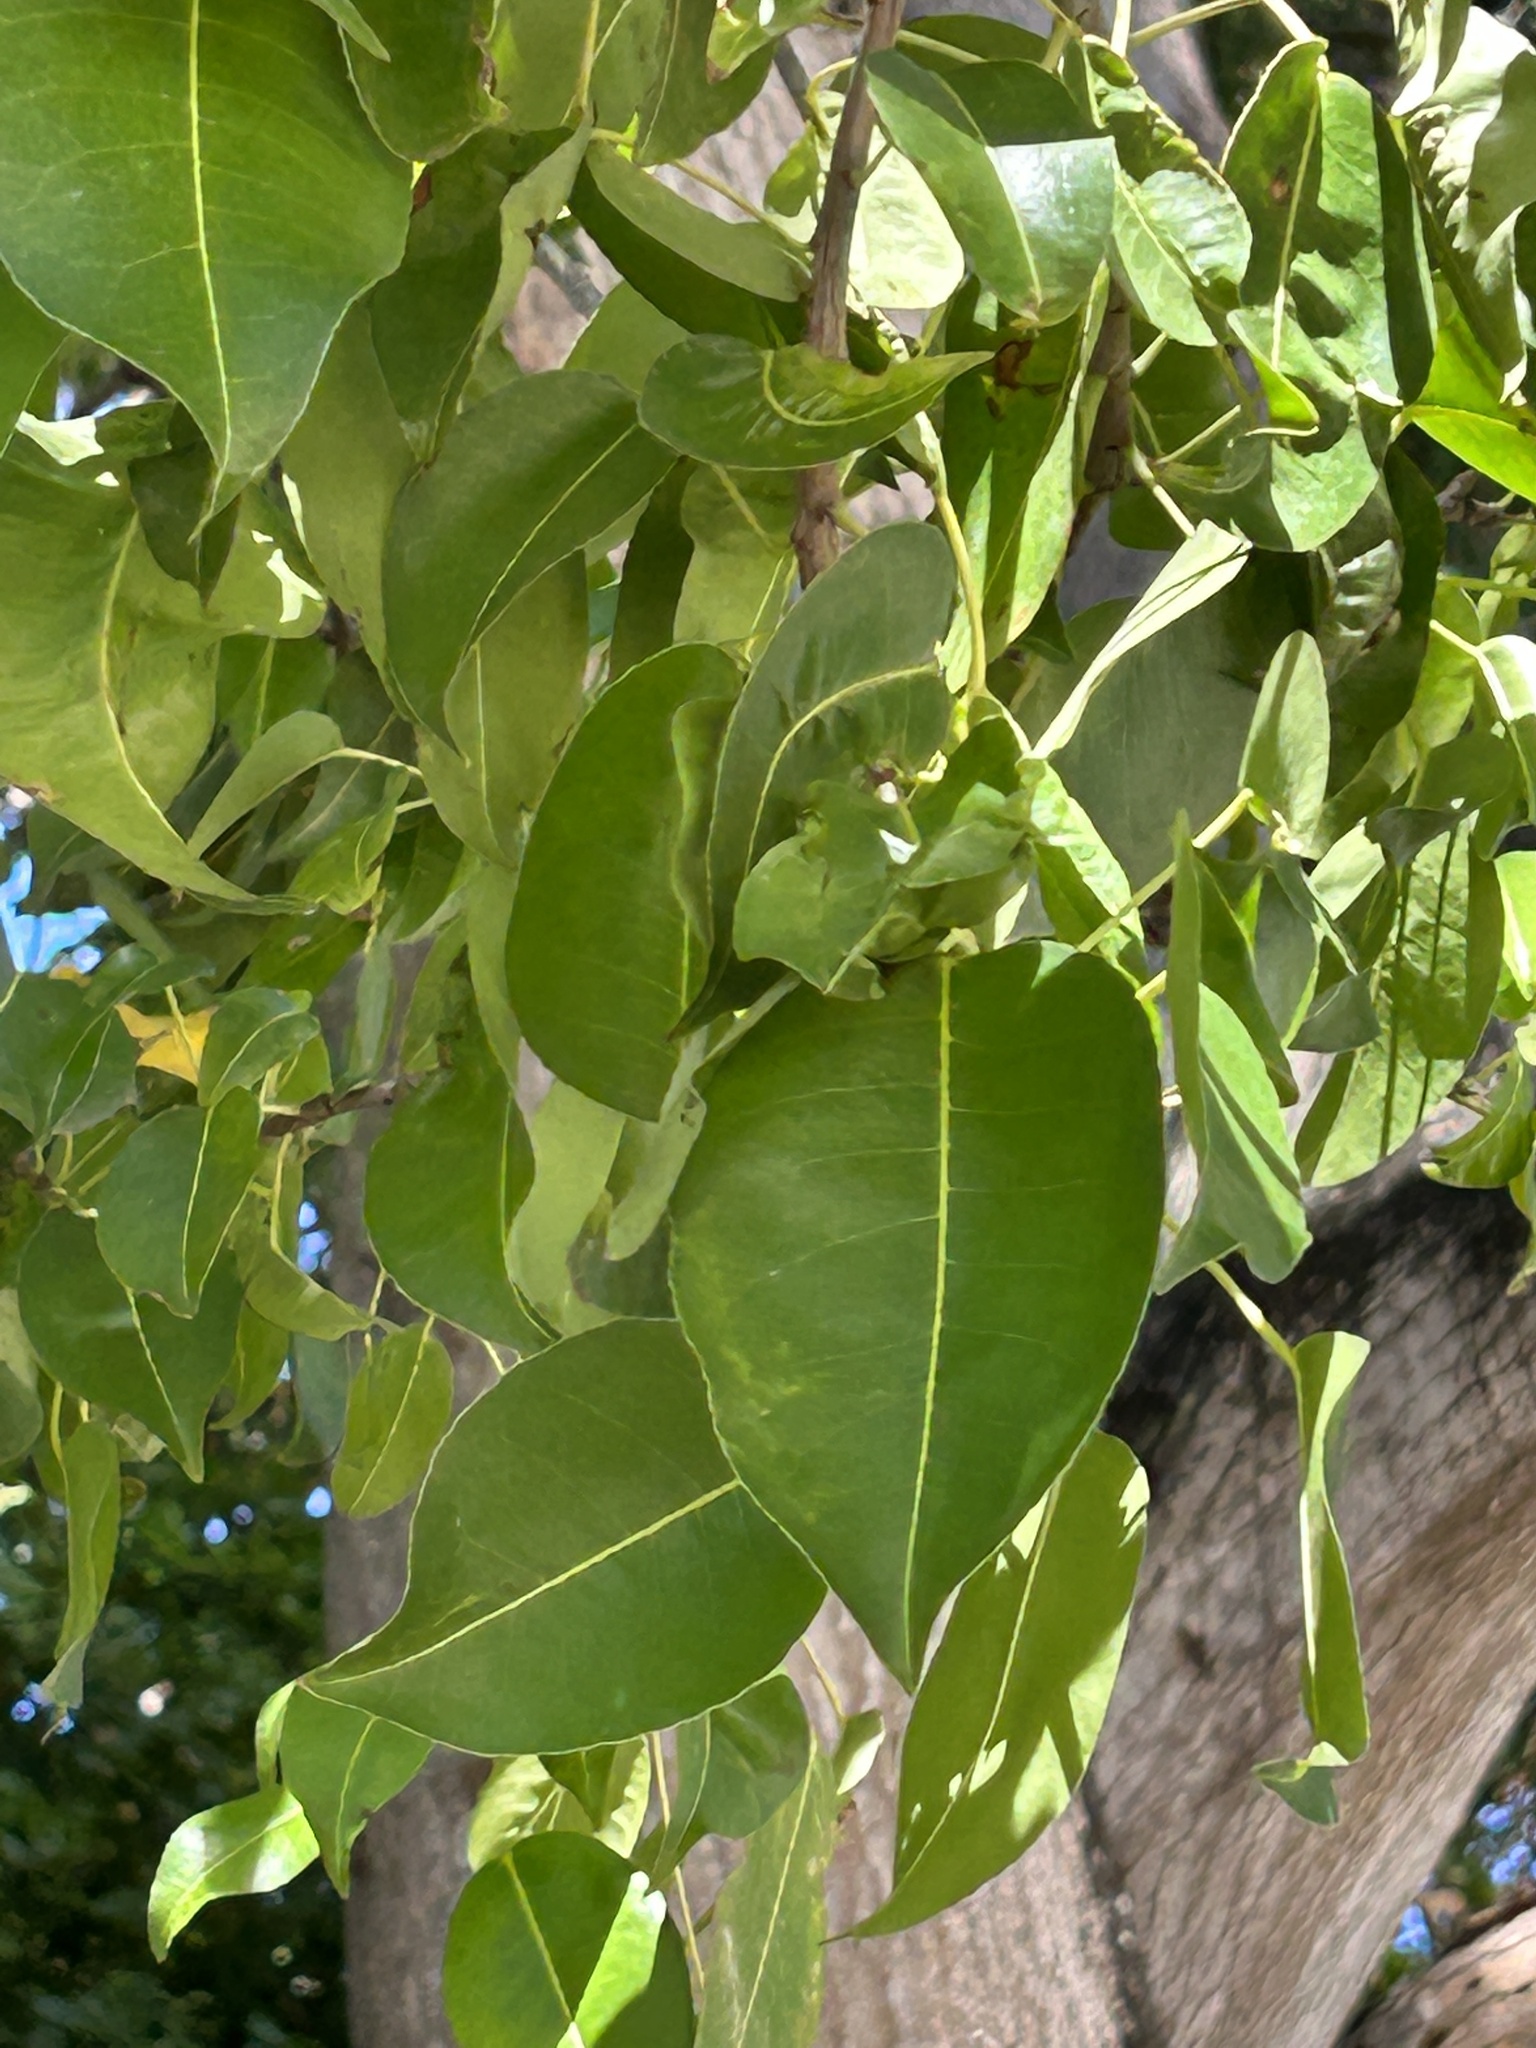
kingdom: Plantae
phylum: Tracheophyta
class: Magnoliopsida
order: Malpighiales
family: Euphorbiaceae
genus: Hippomane
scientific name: Hippomane mancinella
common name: Manchineel
